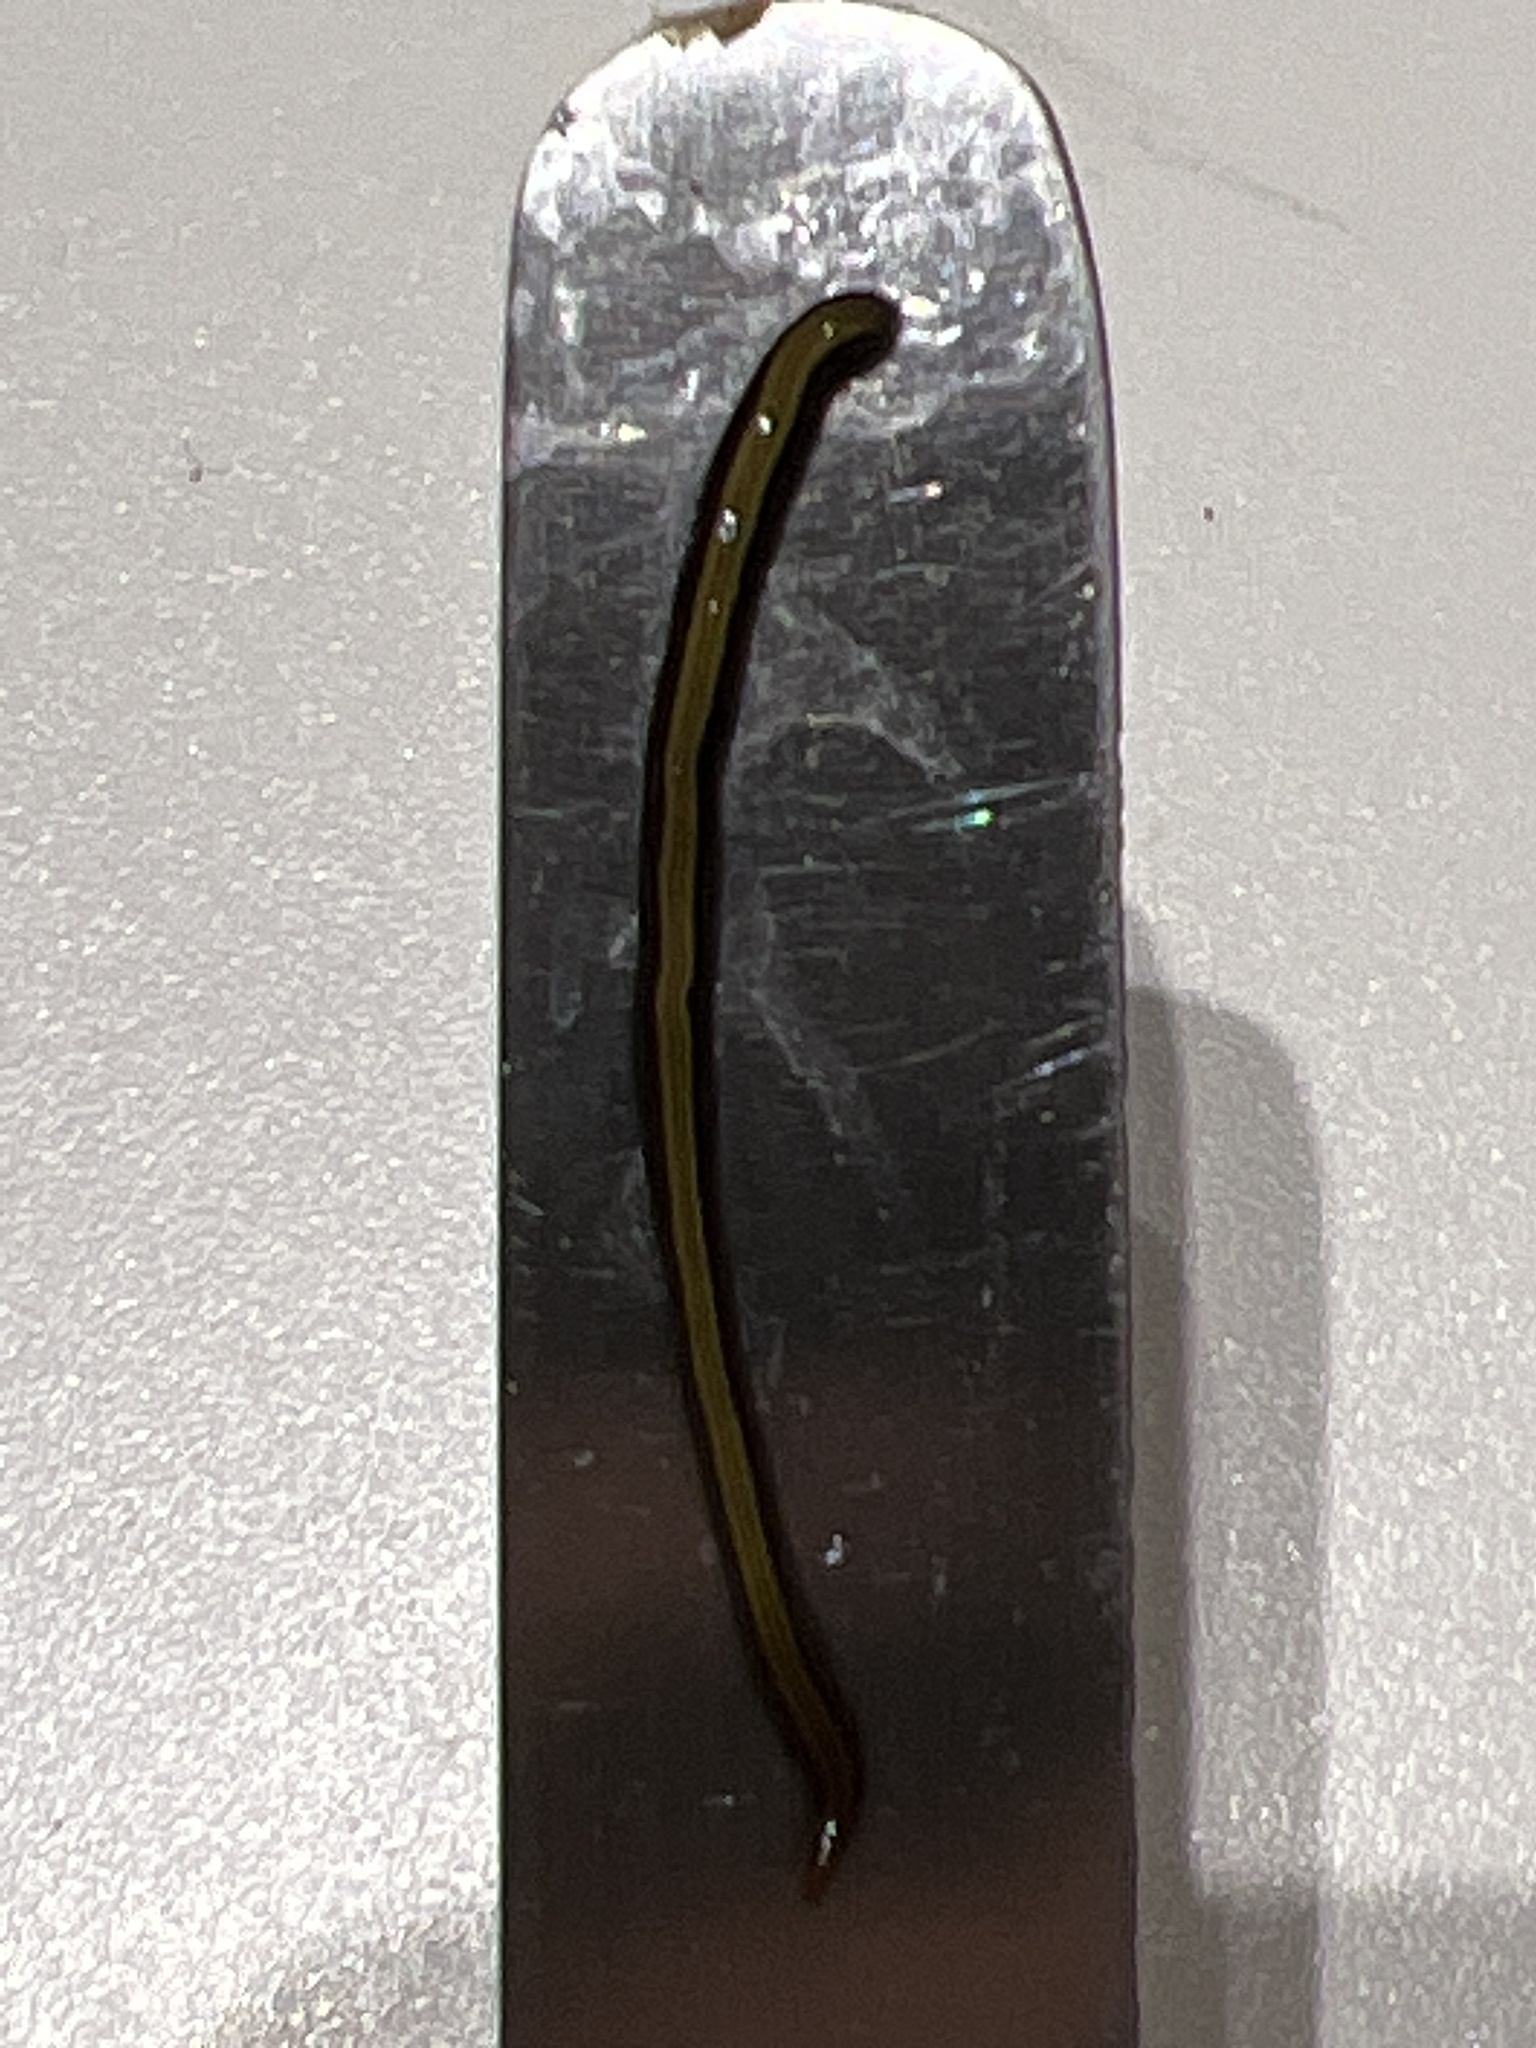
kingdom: Animalia
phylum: Platyhelminthes
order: Tricladida
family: Geoplanidae
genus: Caenoplana
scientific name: Caenoplana variegata
